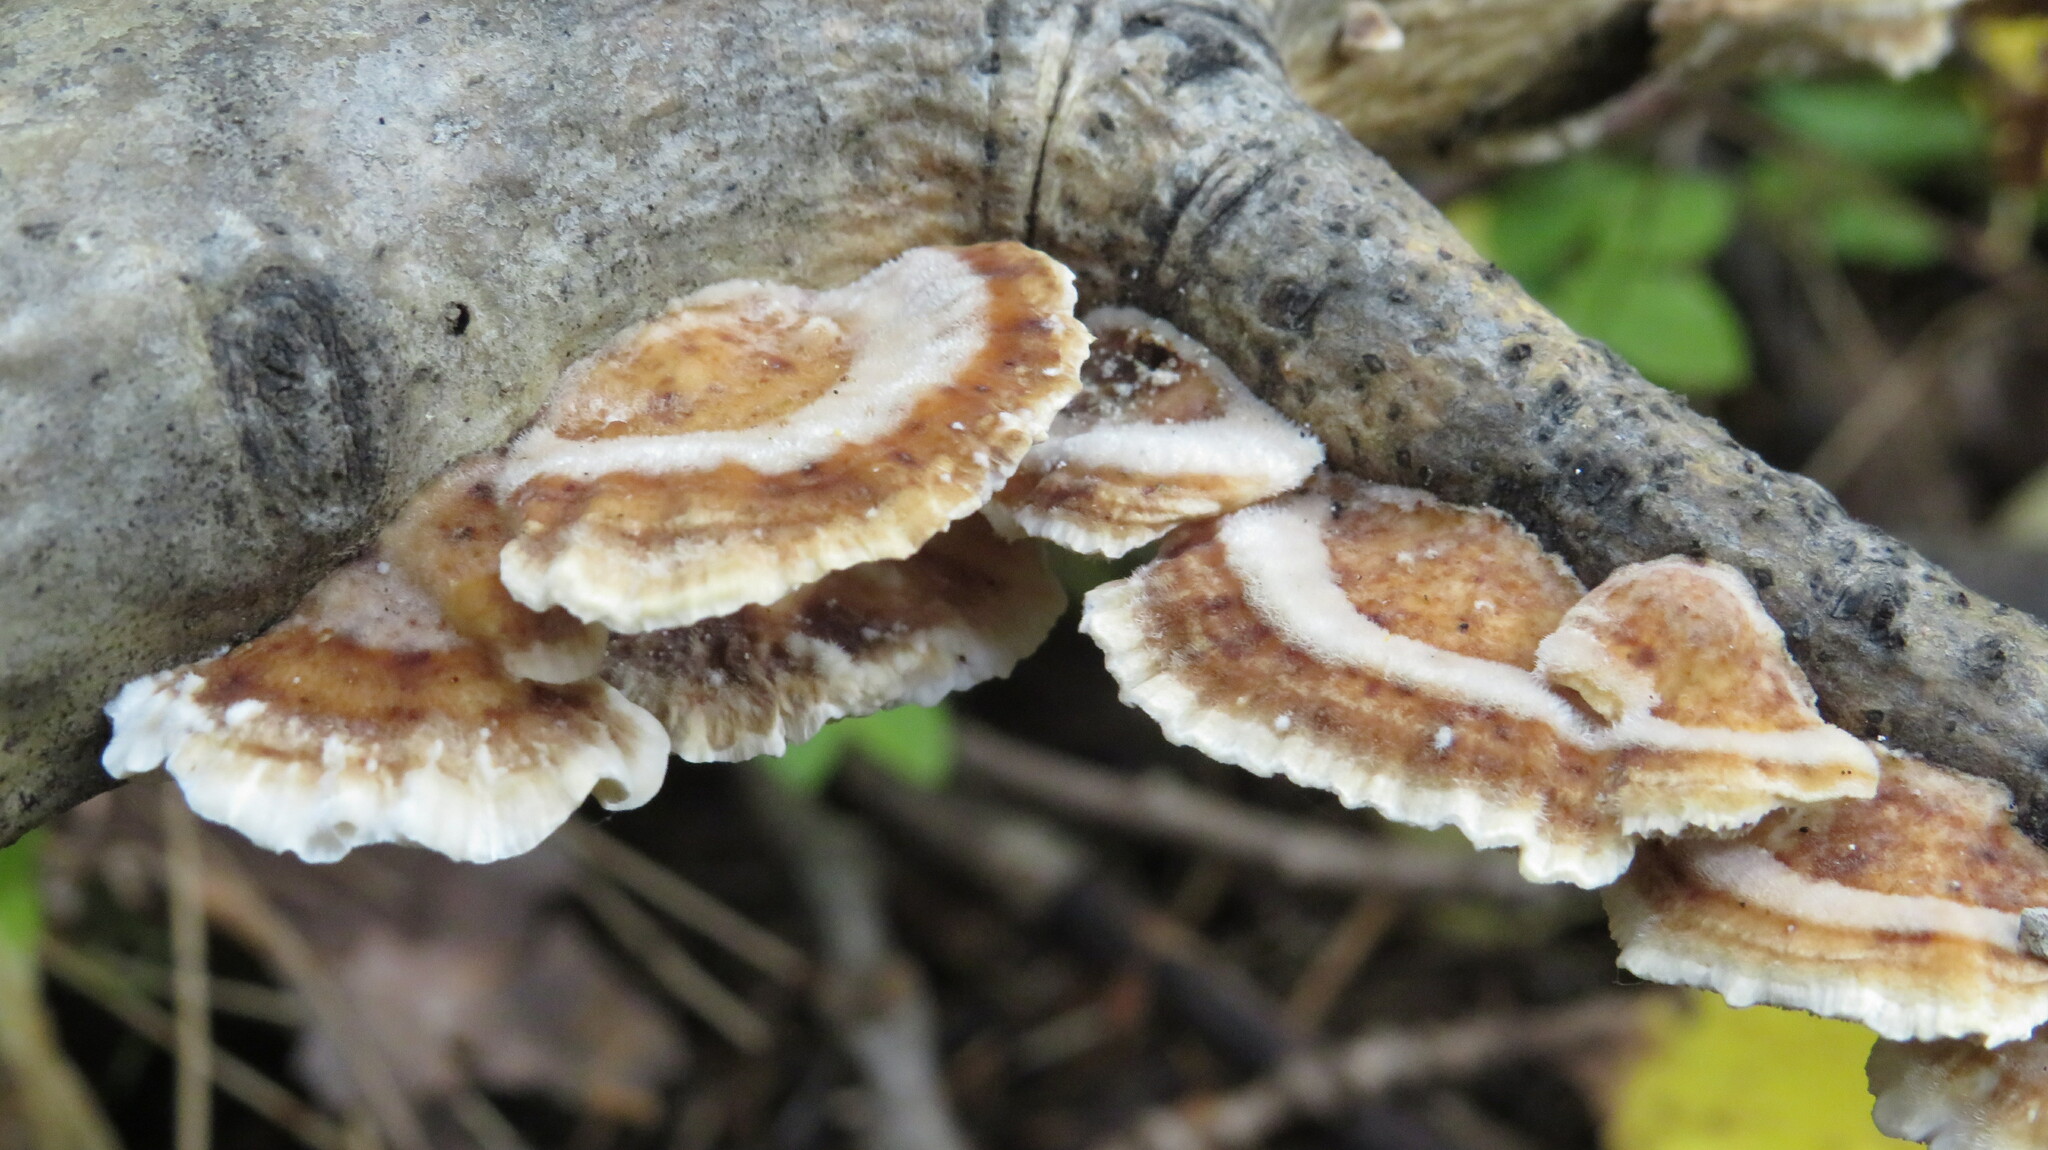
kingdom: Fungi
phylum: Basidiomycota
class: Agaricomycetes
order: Polyporales
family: Polyporaceae
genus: Trametes
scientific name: Trametes ochracea
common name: Ochre bracket
